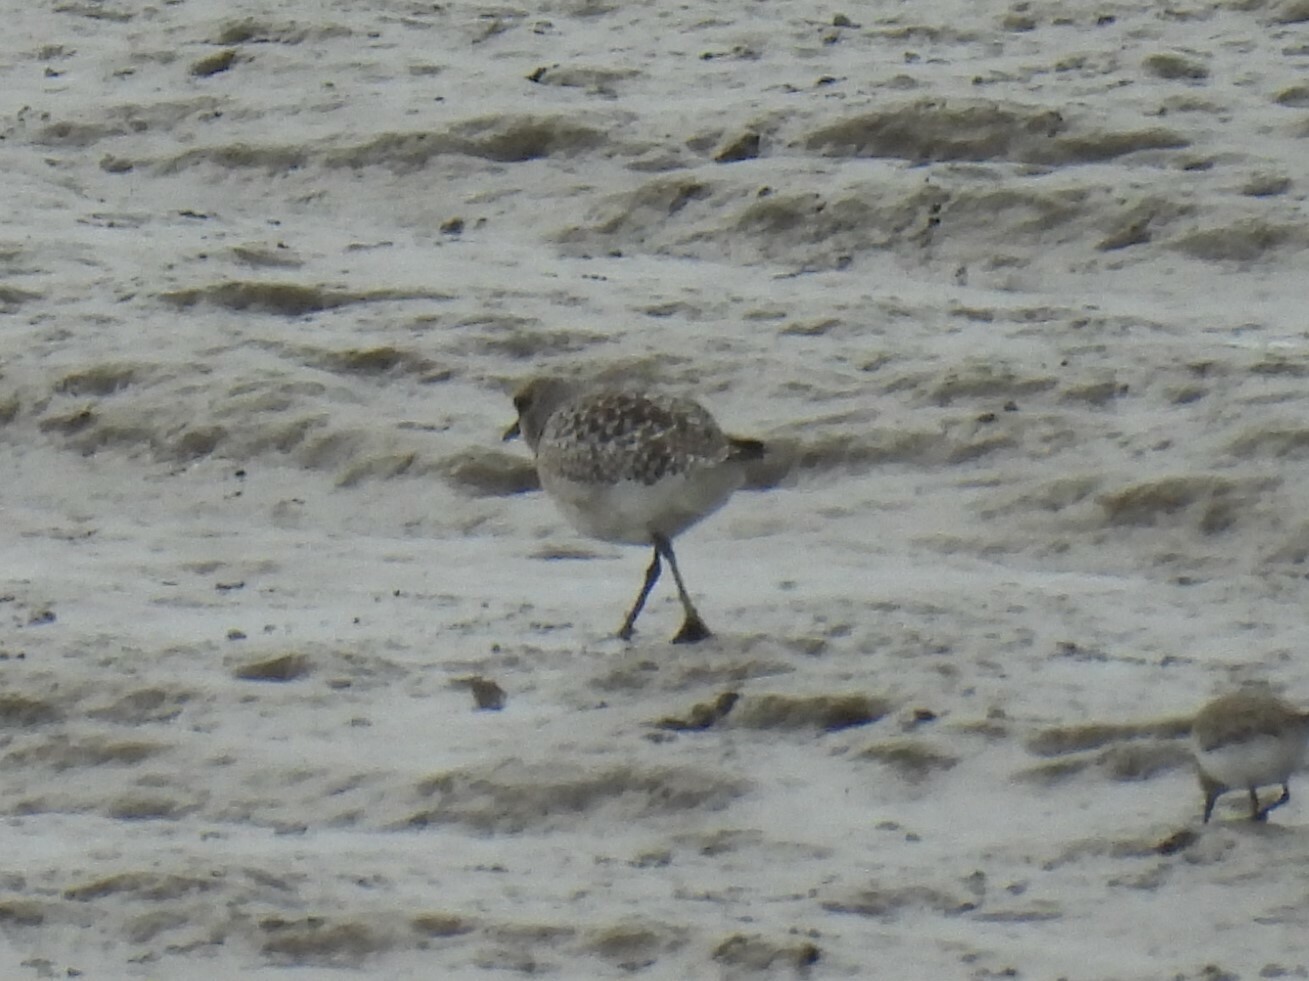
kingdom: Animalia
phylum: Chordata
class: Aves
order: Charadriiformes
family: Charadriidae
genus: Pluvialis
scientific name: Pluvialis squatarola
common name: Grey plover
